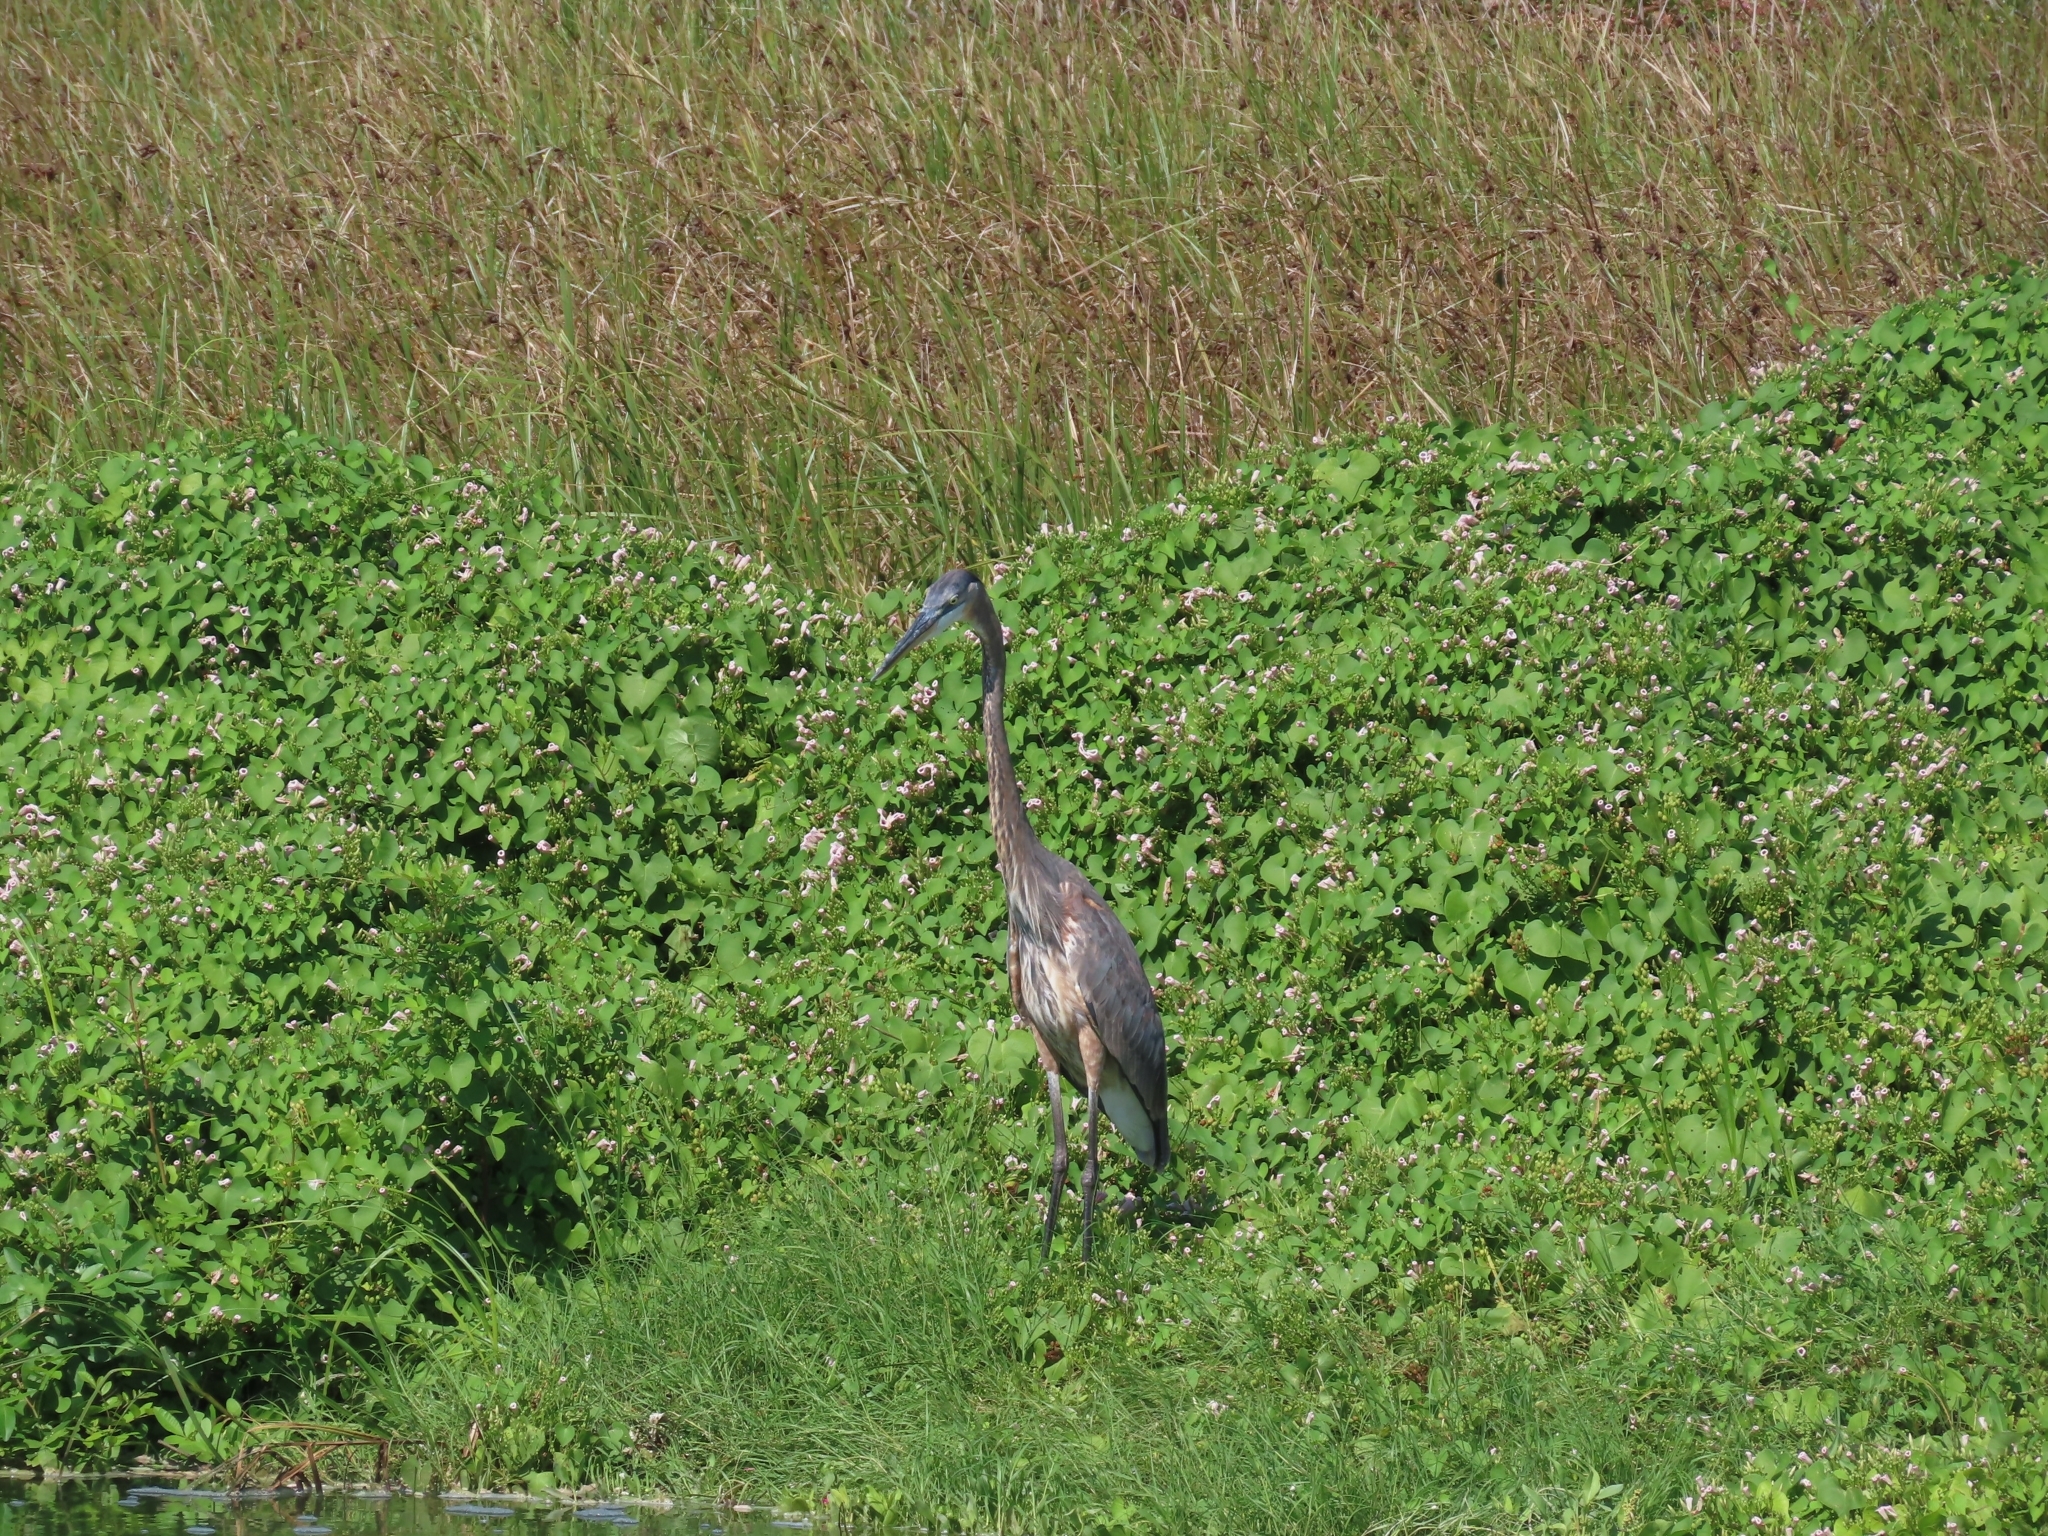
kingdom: Animalia
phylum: Chordata
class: Aves
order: Pelecaniformes
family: Ardeidae
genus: Ardea
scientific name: Ardea herodias
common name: Great blue heron
